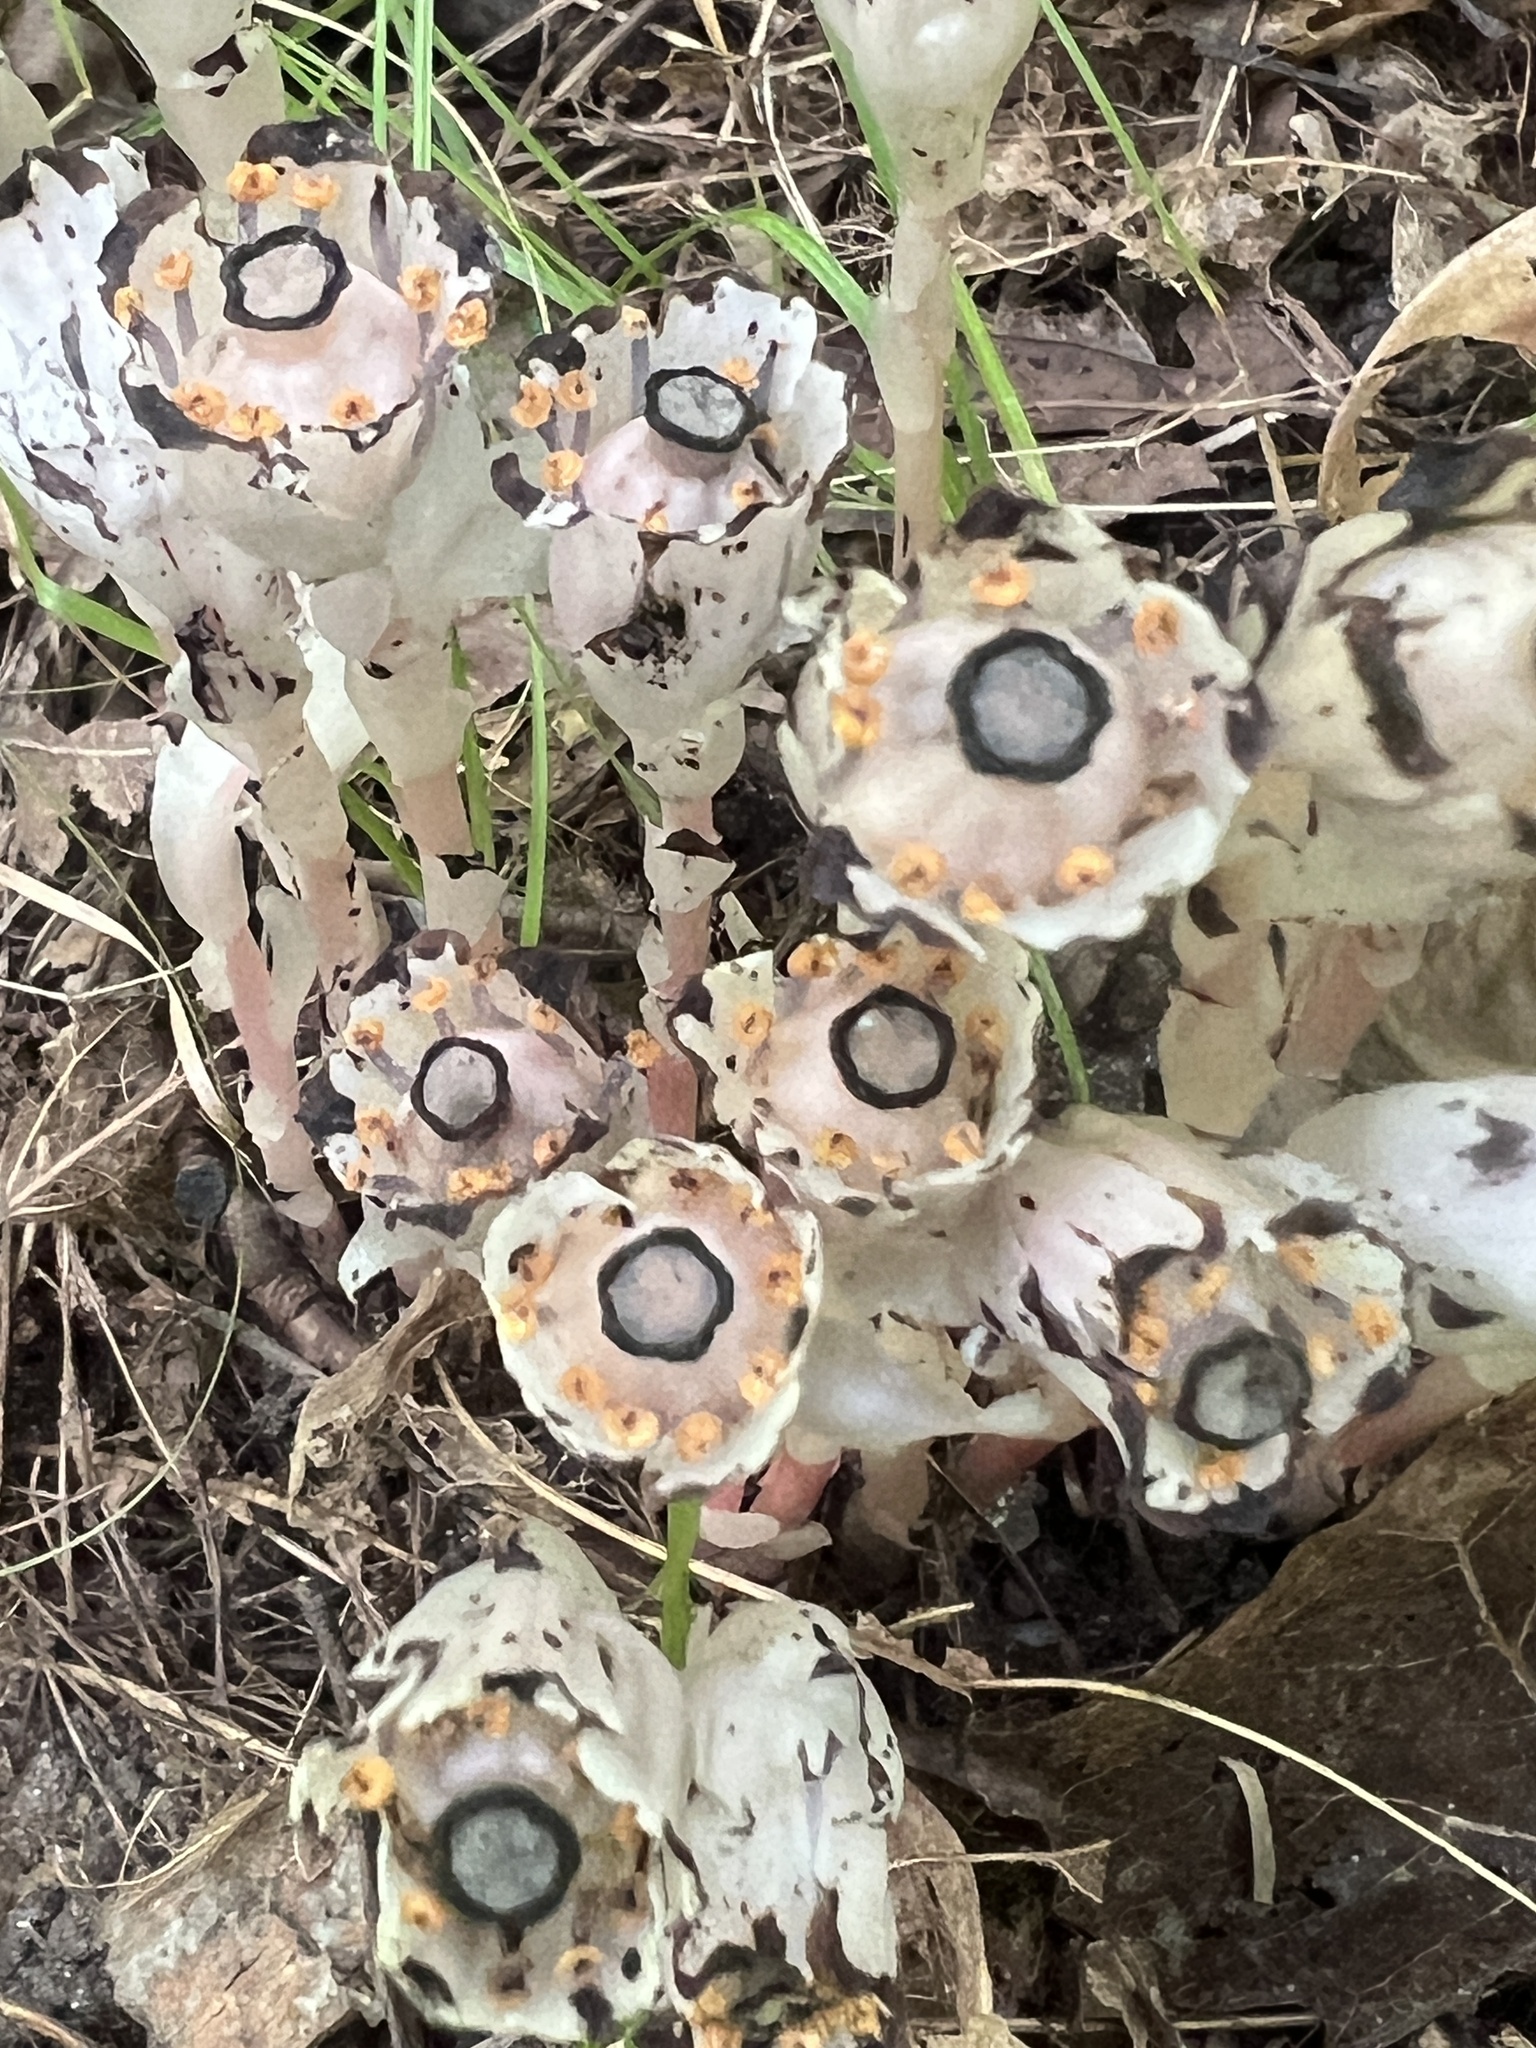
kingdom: Plantae
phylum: Tracheophyta
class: Magnoliopsida
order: Ericales
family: Ericaceae
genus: Monotropa
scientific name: Monotropa uniflora
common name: Convulsion root
